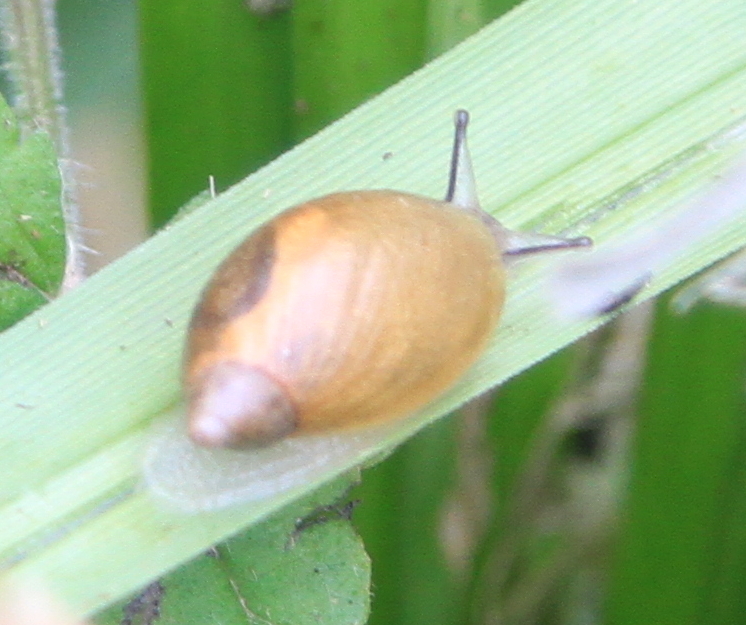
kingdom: Animalia
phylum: Mollusca
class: Gastropoda
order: Stylommatophora
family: Succineidae
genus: Succinea
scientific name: Succinea putris
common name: European ambersnail
